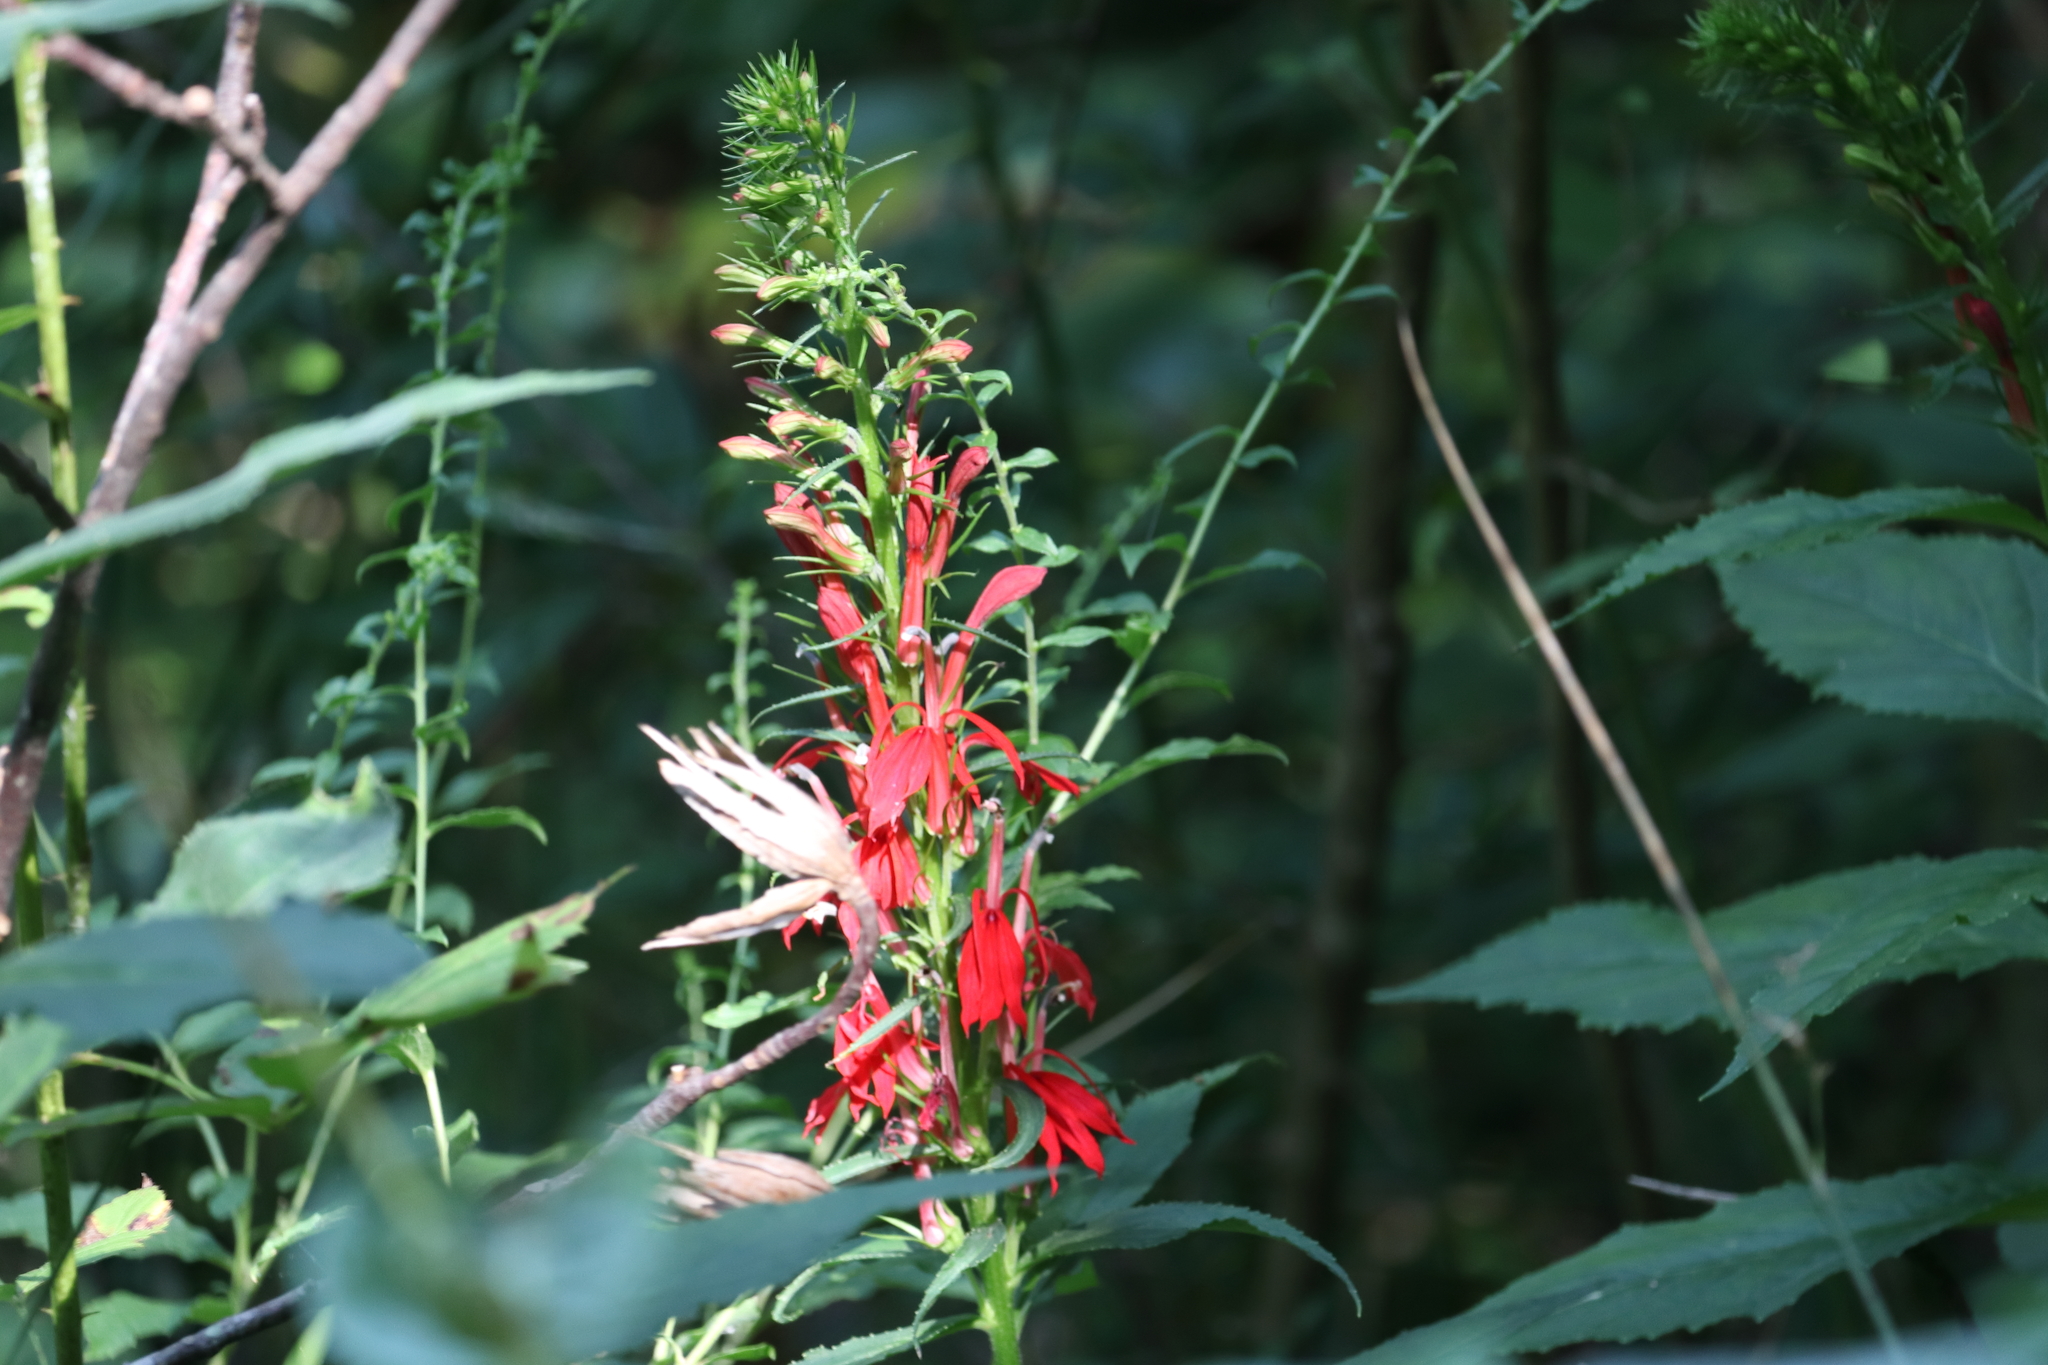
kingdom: Plantae
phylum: Tracheophyta
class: Magnoliopsida
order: Asterales
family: Campanulaceae
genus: Lobelia
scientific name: Lobelia cardinalis
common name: Cardinal flower
